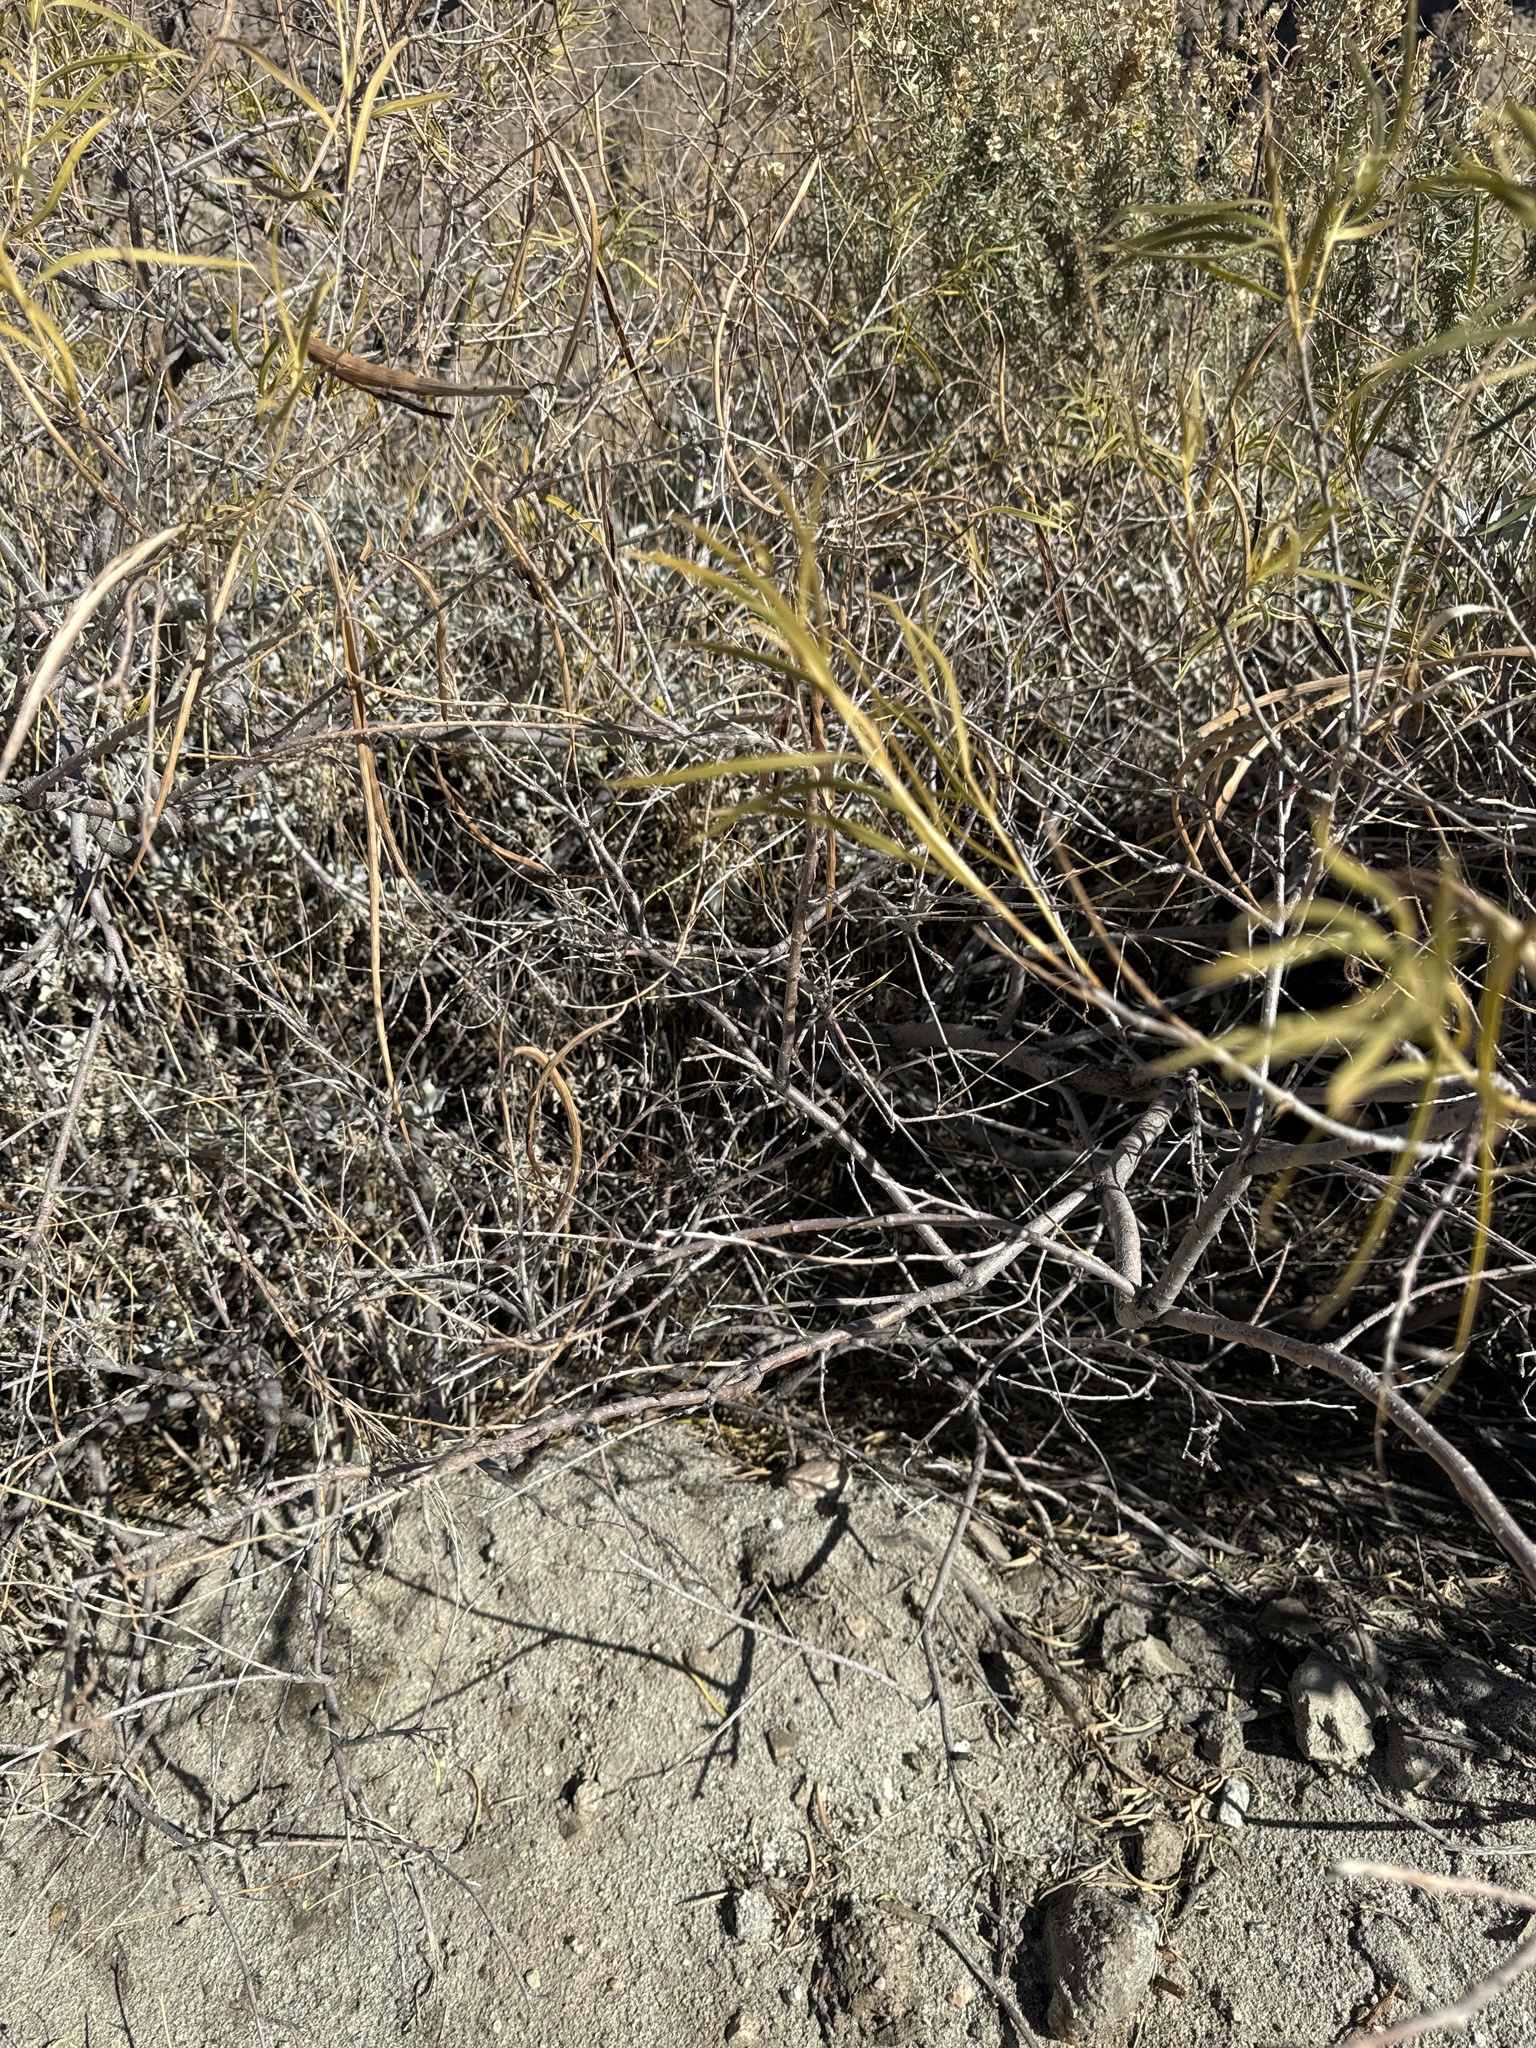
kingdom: Plantae
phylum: Tracheophyta
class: Magnoliopsida
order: Lamiales
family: Bignoniaceae
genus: Chilopsis
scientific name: Chilopsis linearis
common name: Desert-willow
